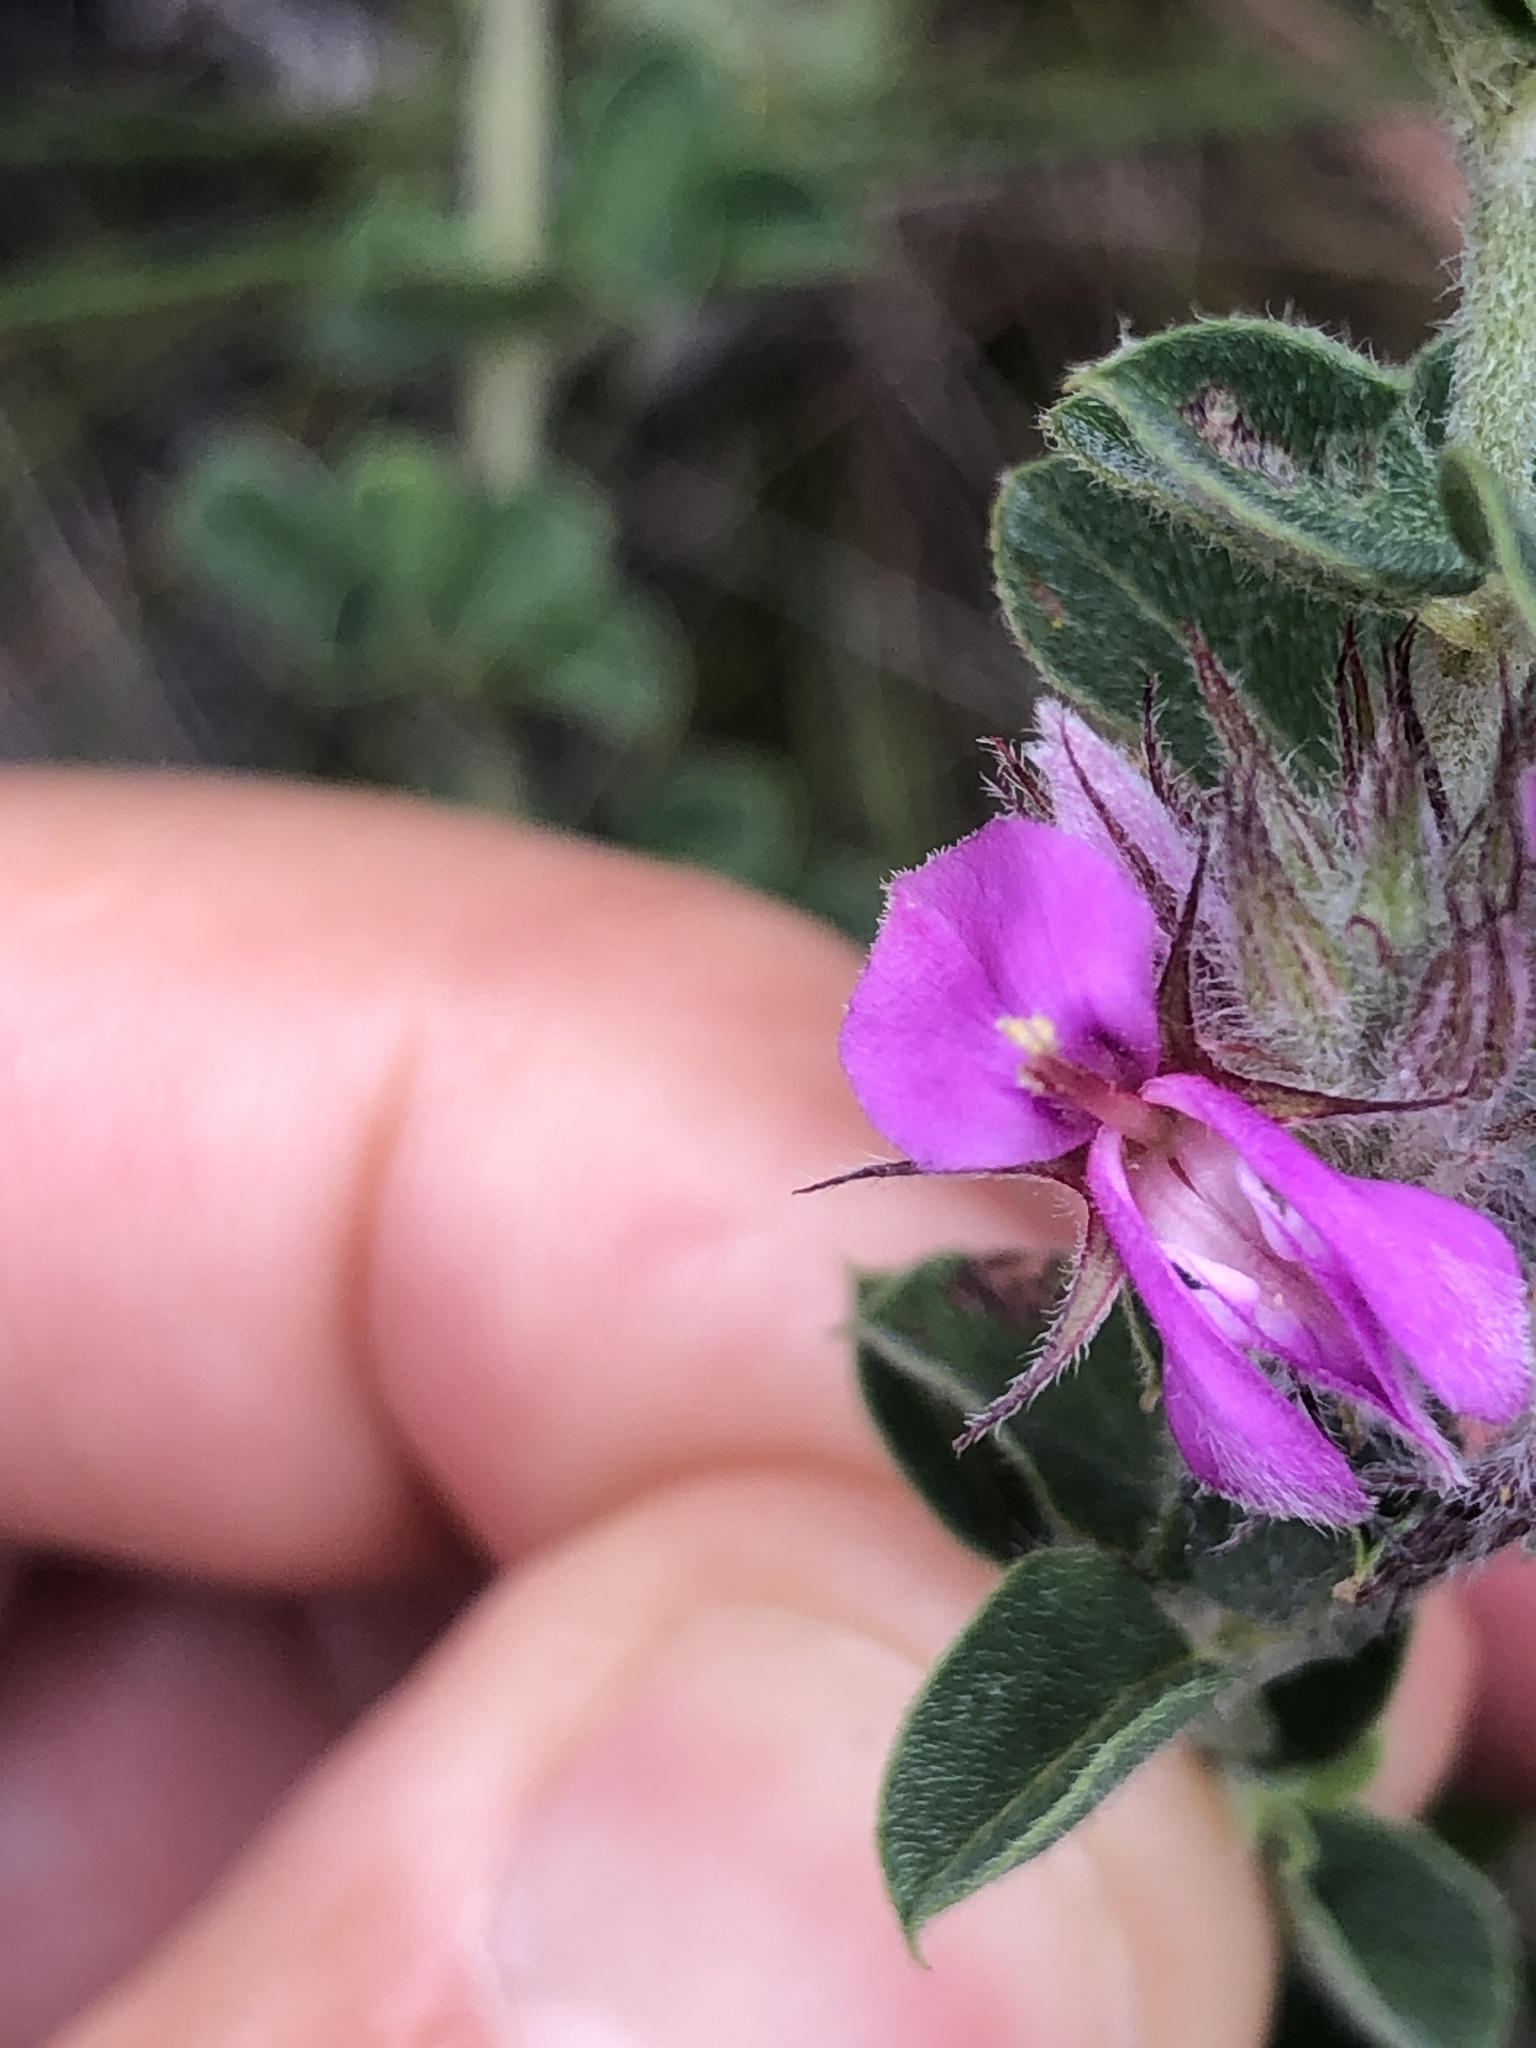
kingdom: Plantae
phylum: Tracheophyta
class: Magnoliopsida
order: Fabales
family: Fabaceae
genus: Indigofera
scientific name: Indigofera candolleana
